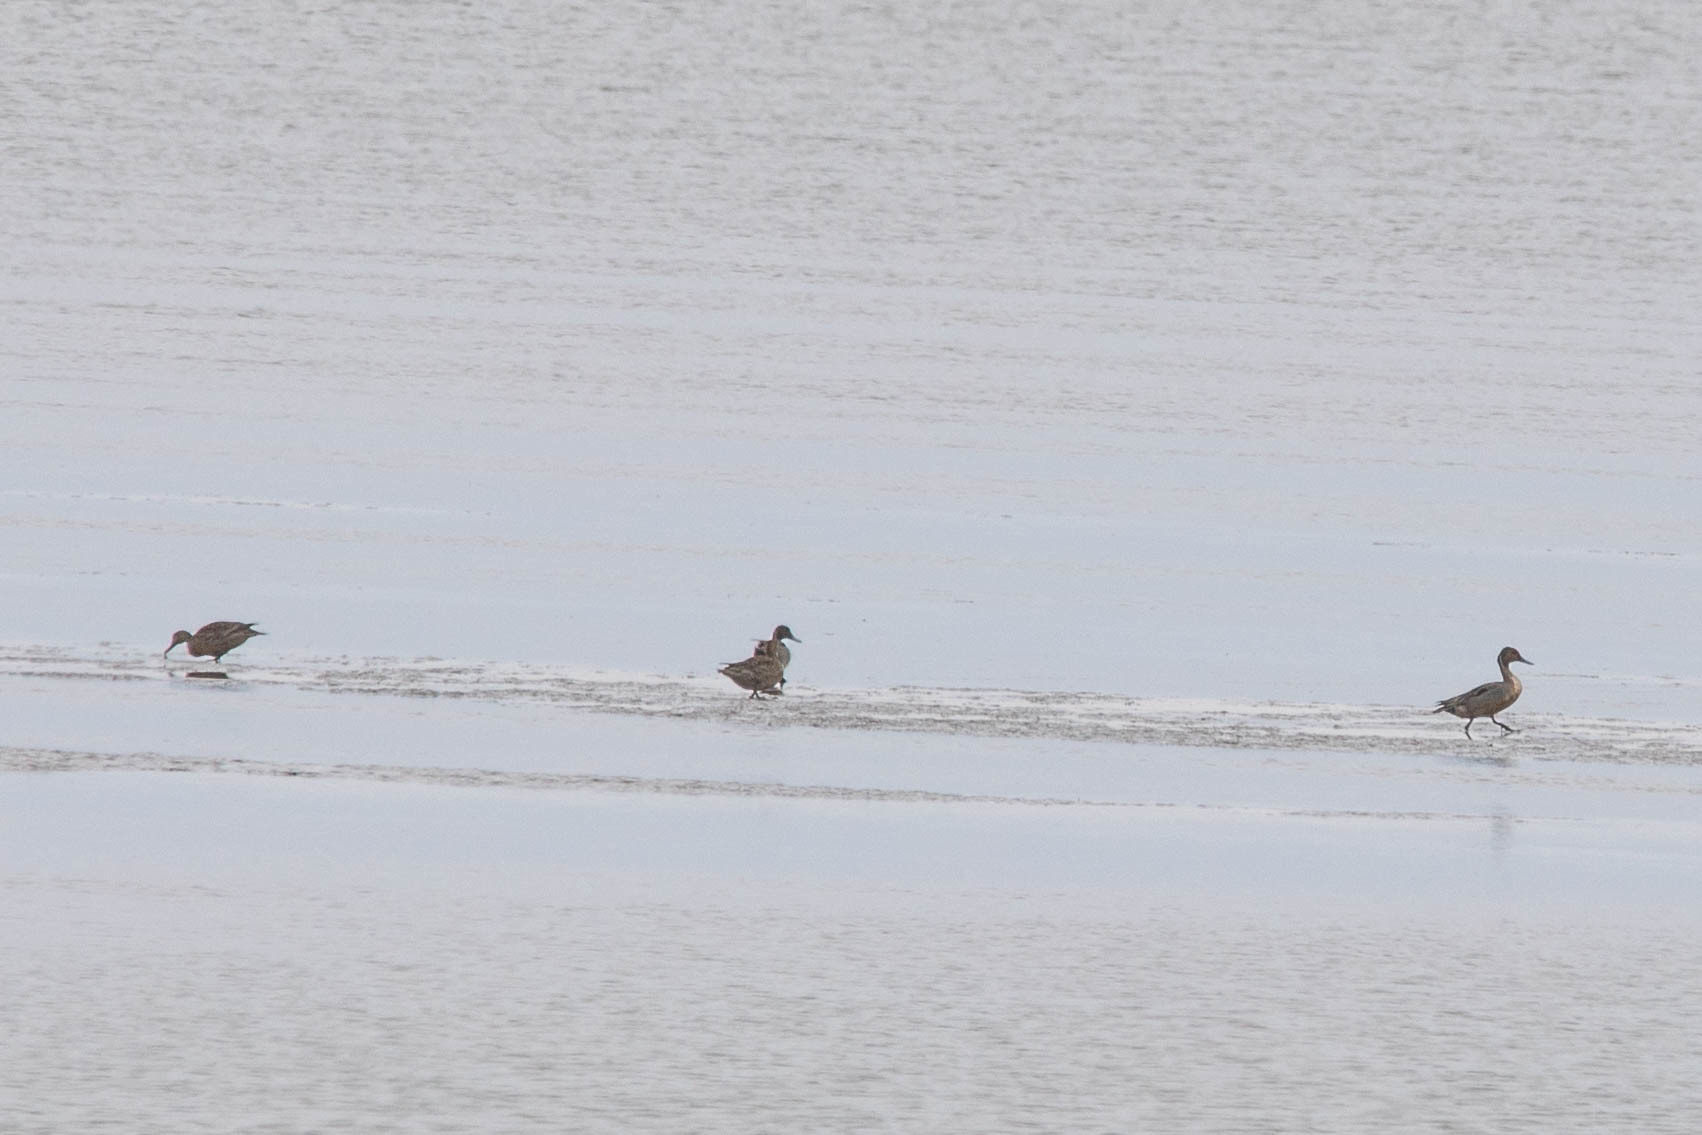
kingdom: Animalia
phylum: Chordata
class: Aves
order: Anseriformes
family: Anatidae
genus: Anas
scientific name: Anas acuta
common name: Northern pintail
